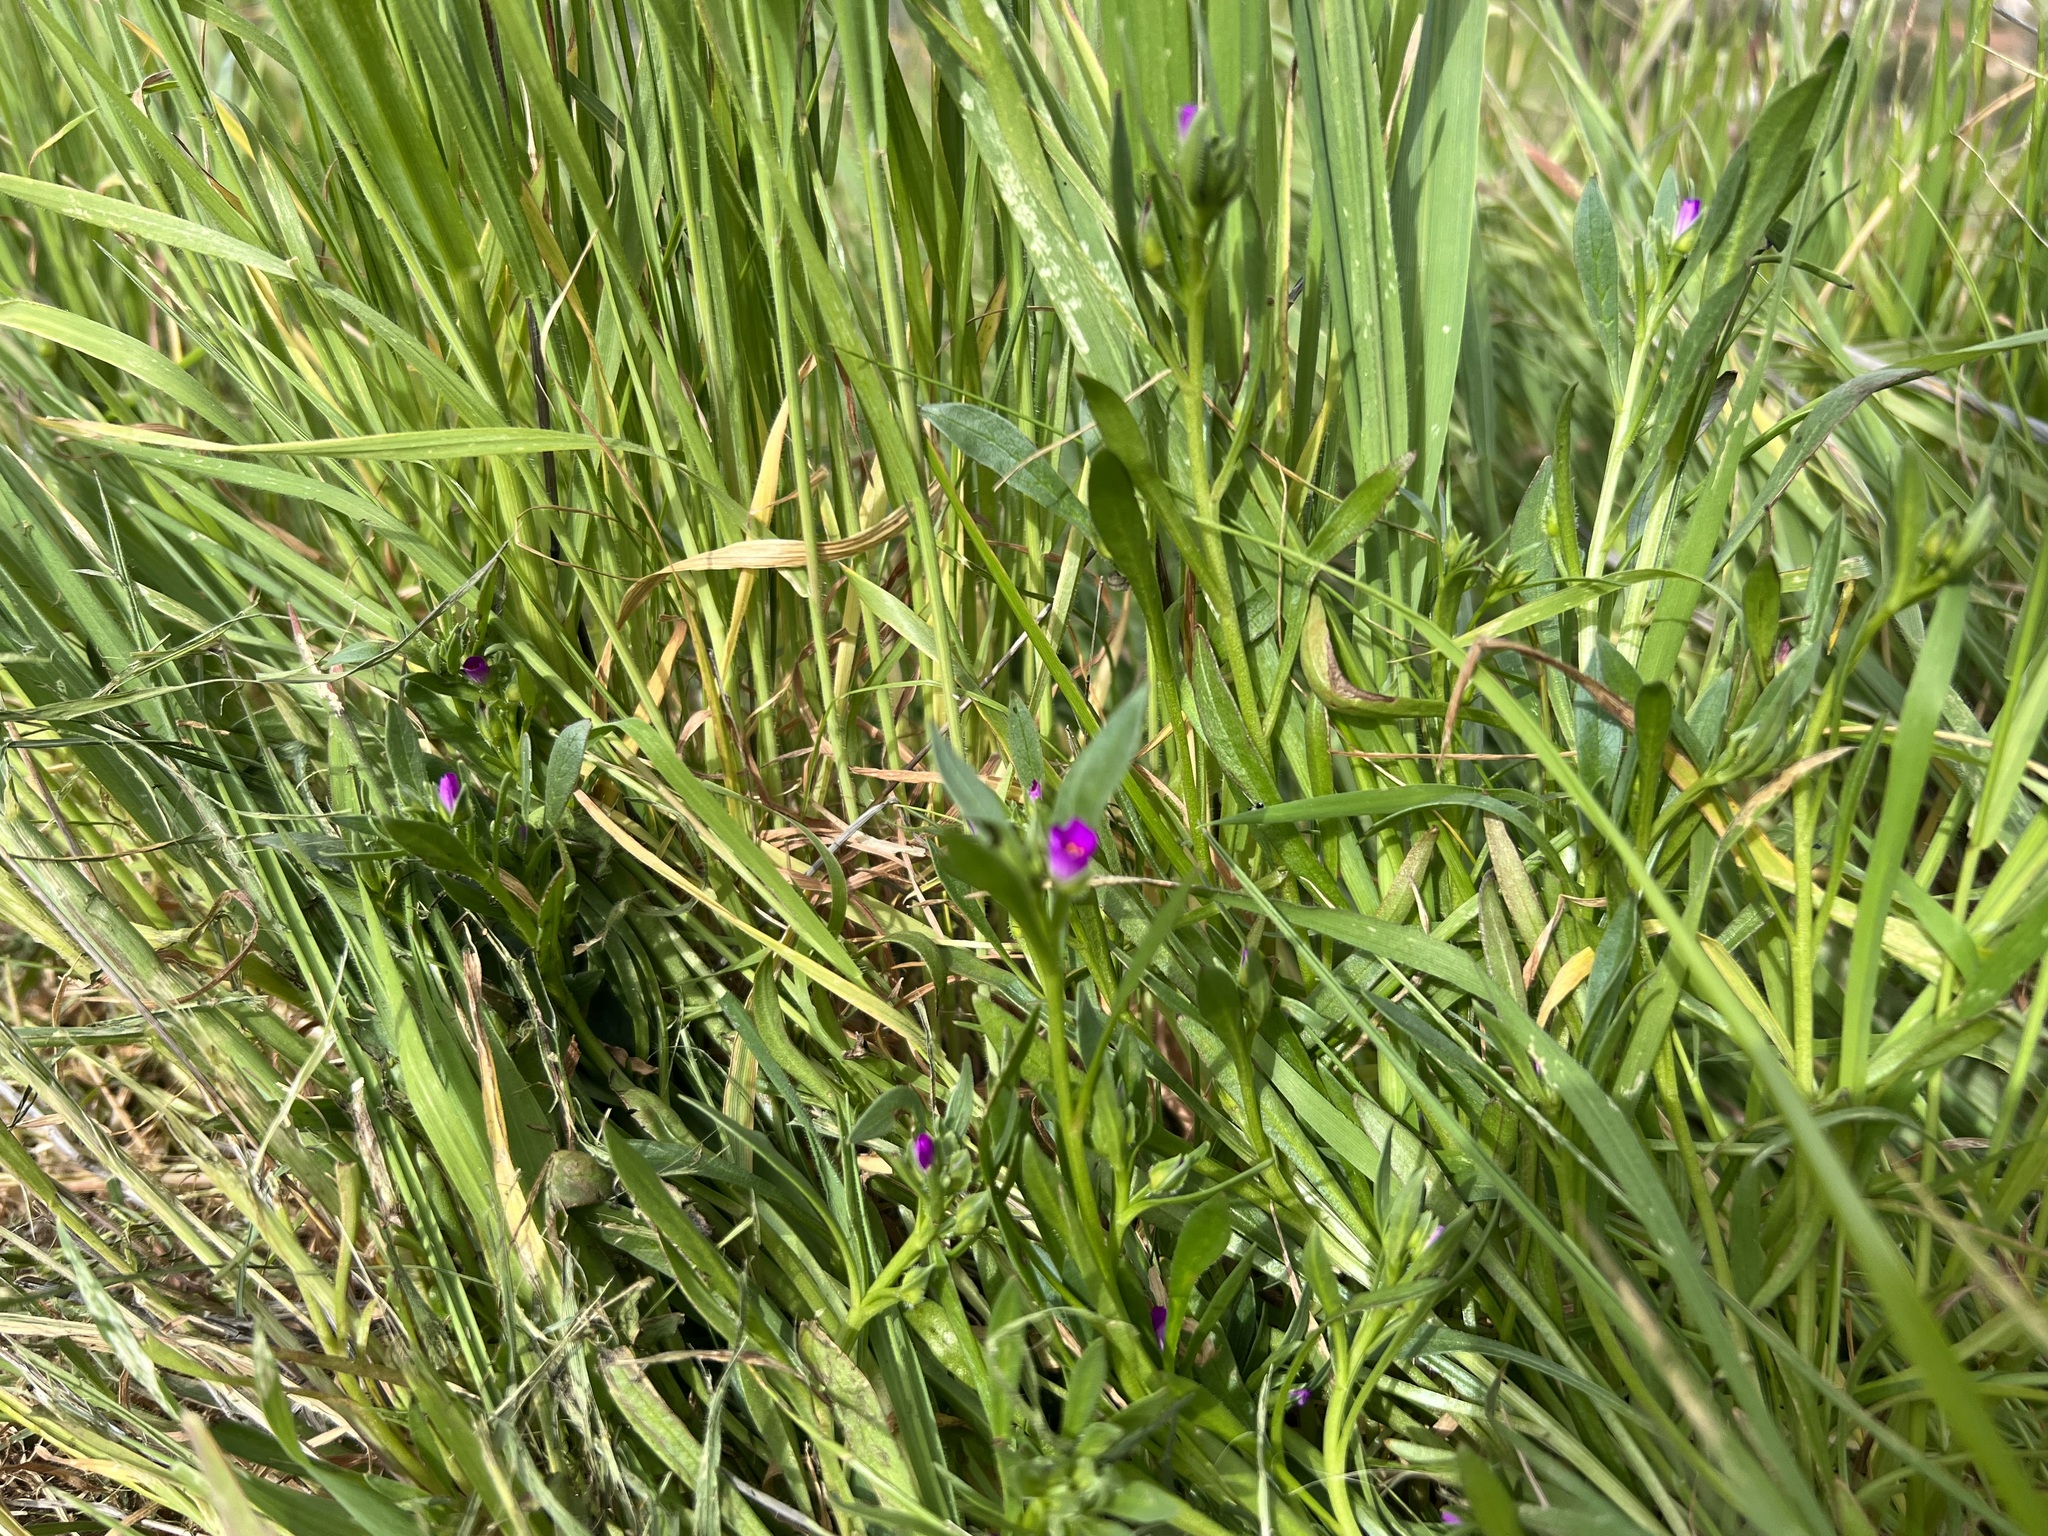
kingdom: Plantae
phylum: Tracheophyta
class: Magnoliopsida
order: Caryophyllales
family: Montiaceae
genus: Calandrinia
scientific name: Calandrinia menziesii
